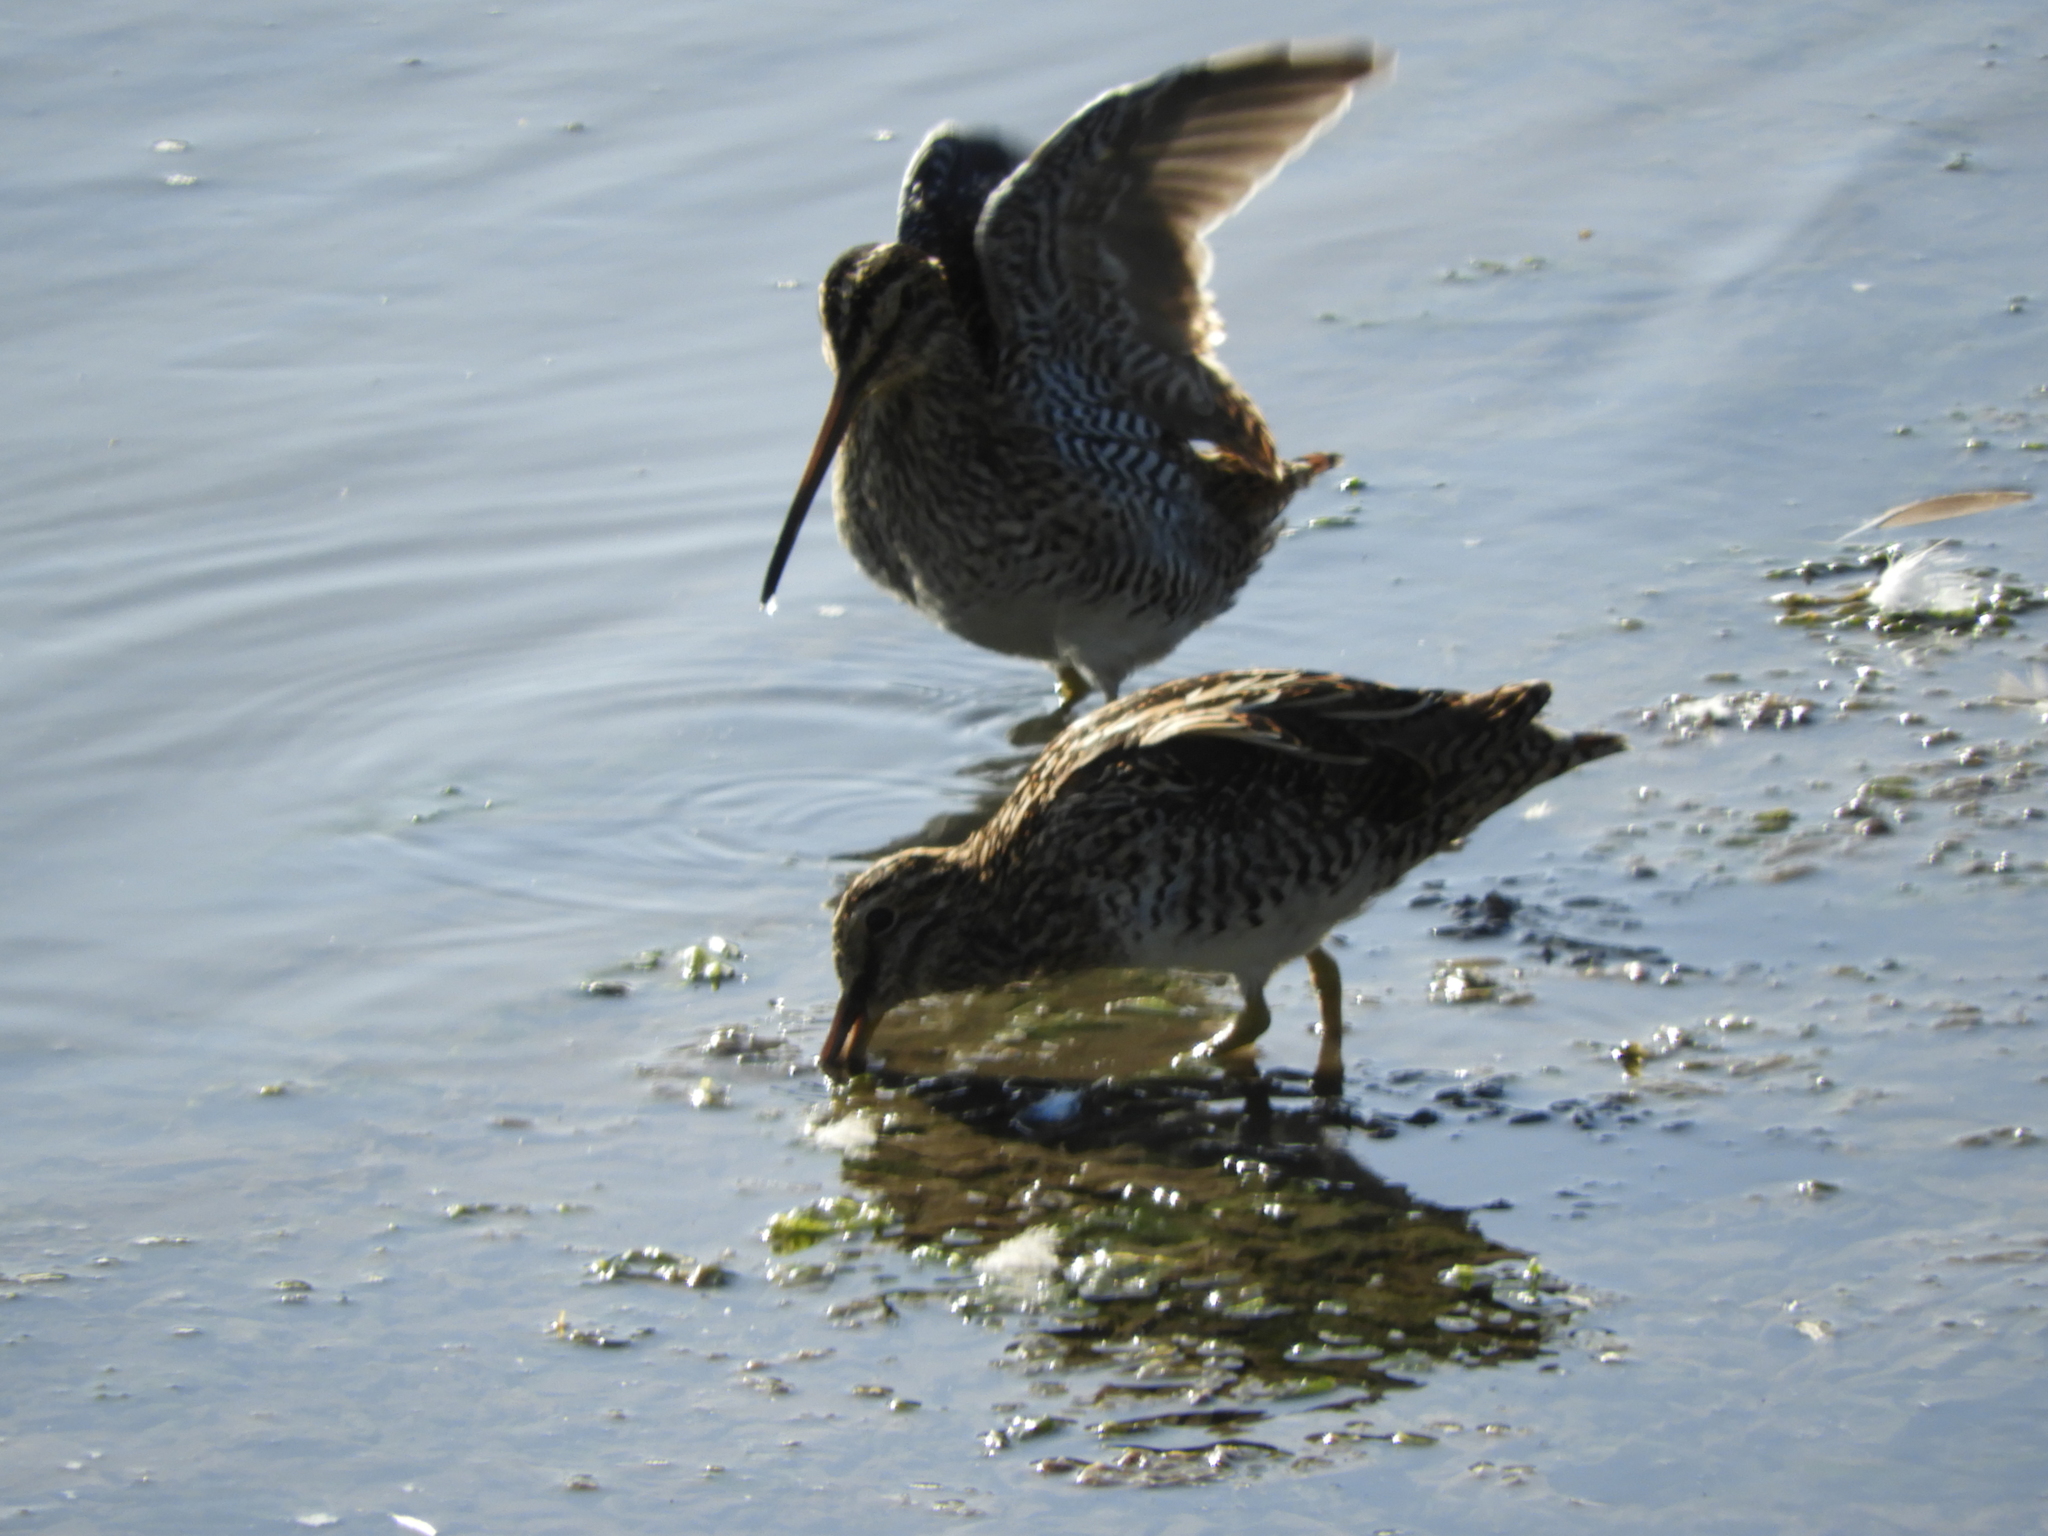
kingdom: Animalia
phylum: Chordata
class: Aves
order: Charadriiformes
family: Scolopacidae
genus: Gallinago
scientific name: Gallinago magellanica
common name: Magellanic snipe
